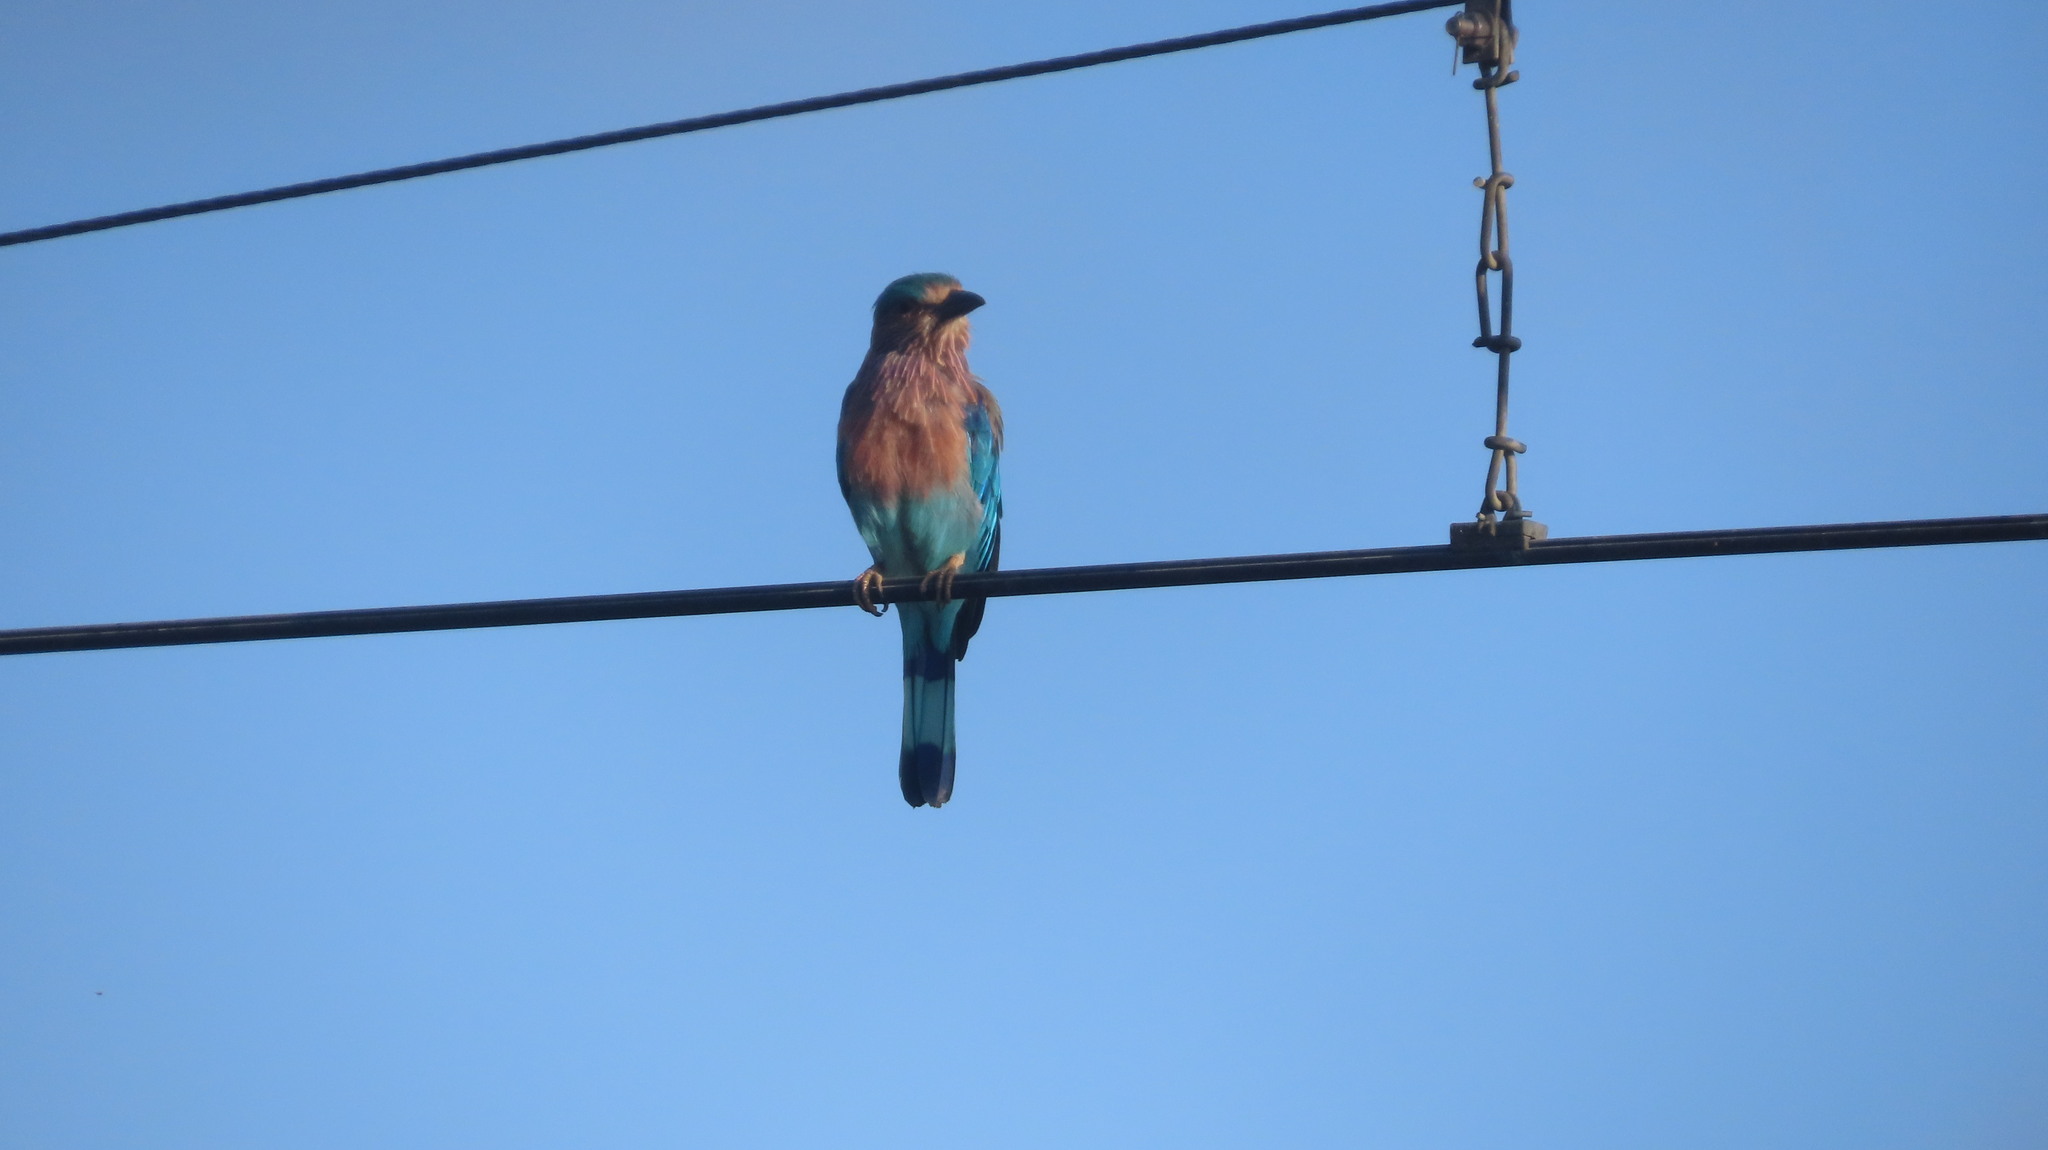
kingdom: Animalia
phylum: Chordata
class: Aves
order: Coraciiformes
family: Coraciidae
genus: Coracias
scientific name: Coracias benghalensis
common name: Indian roller
